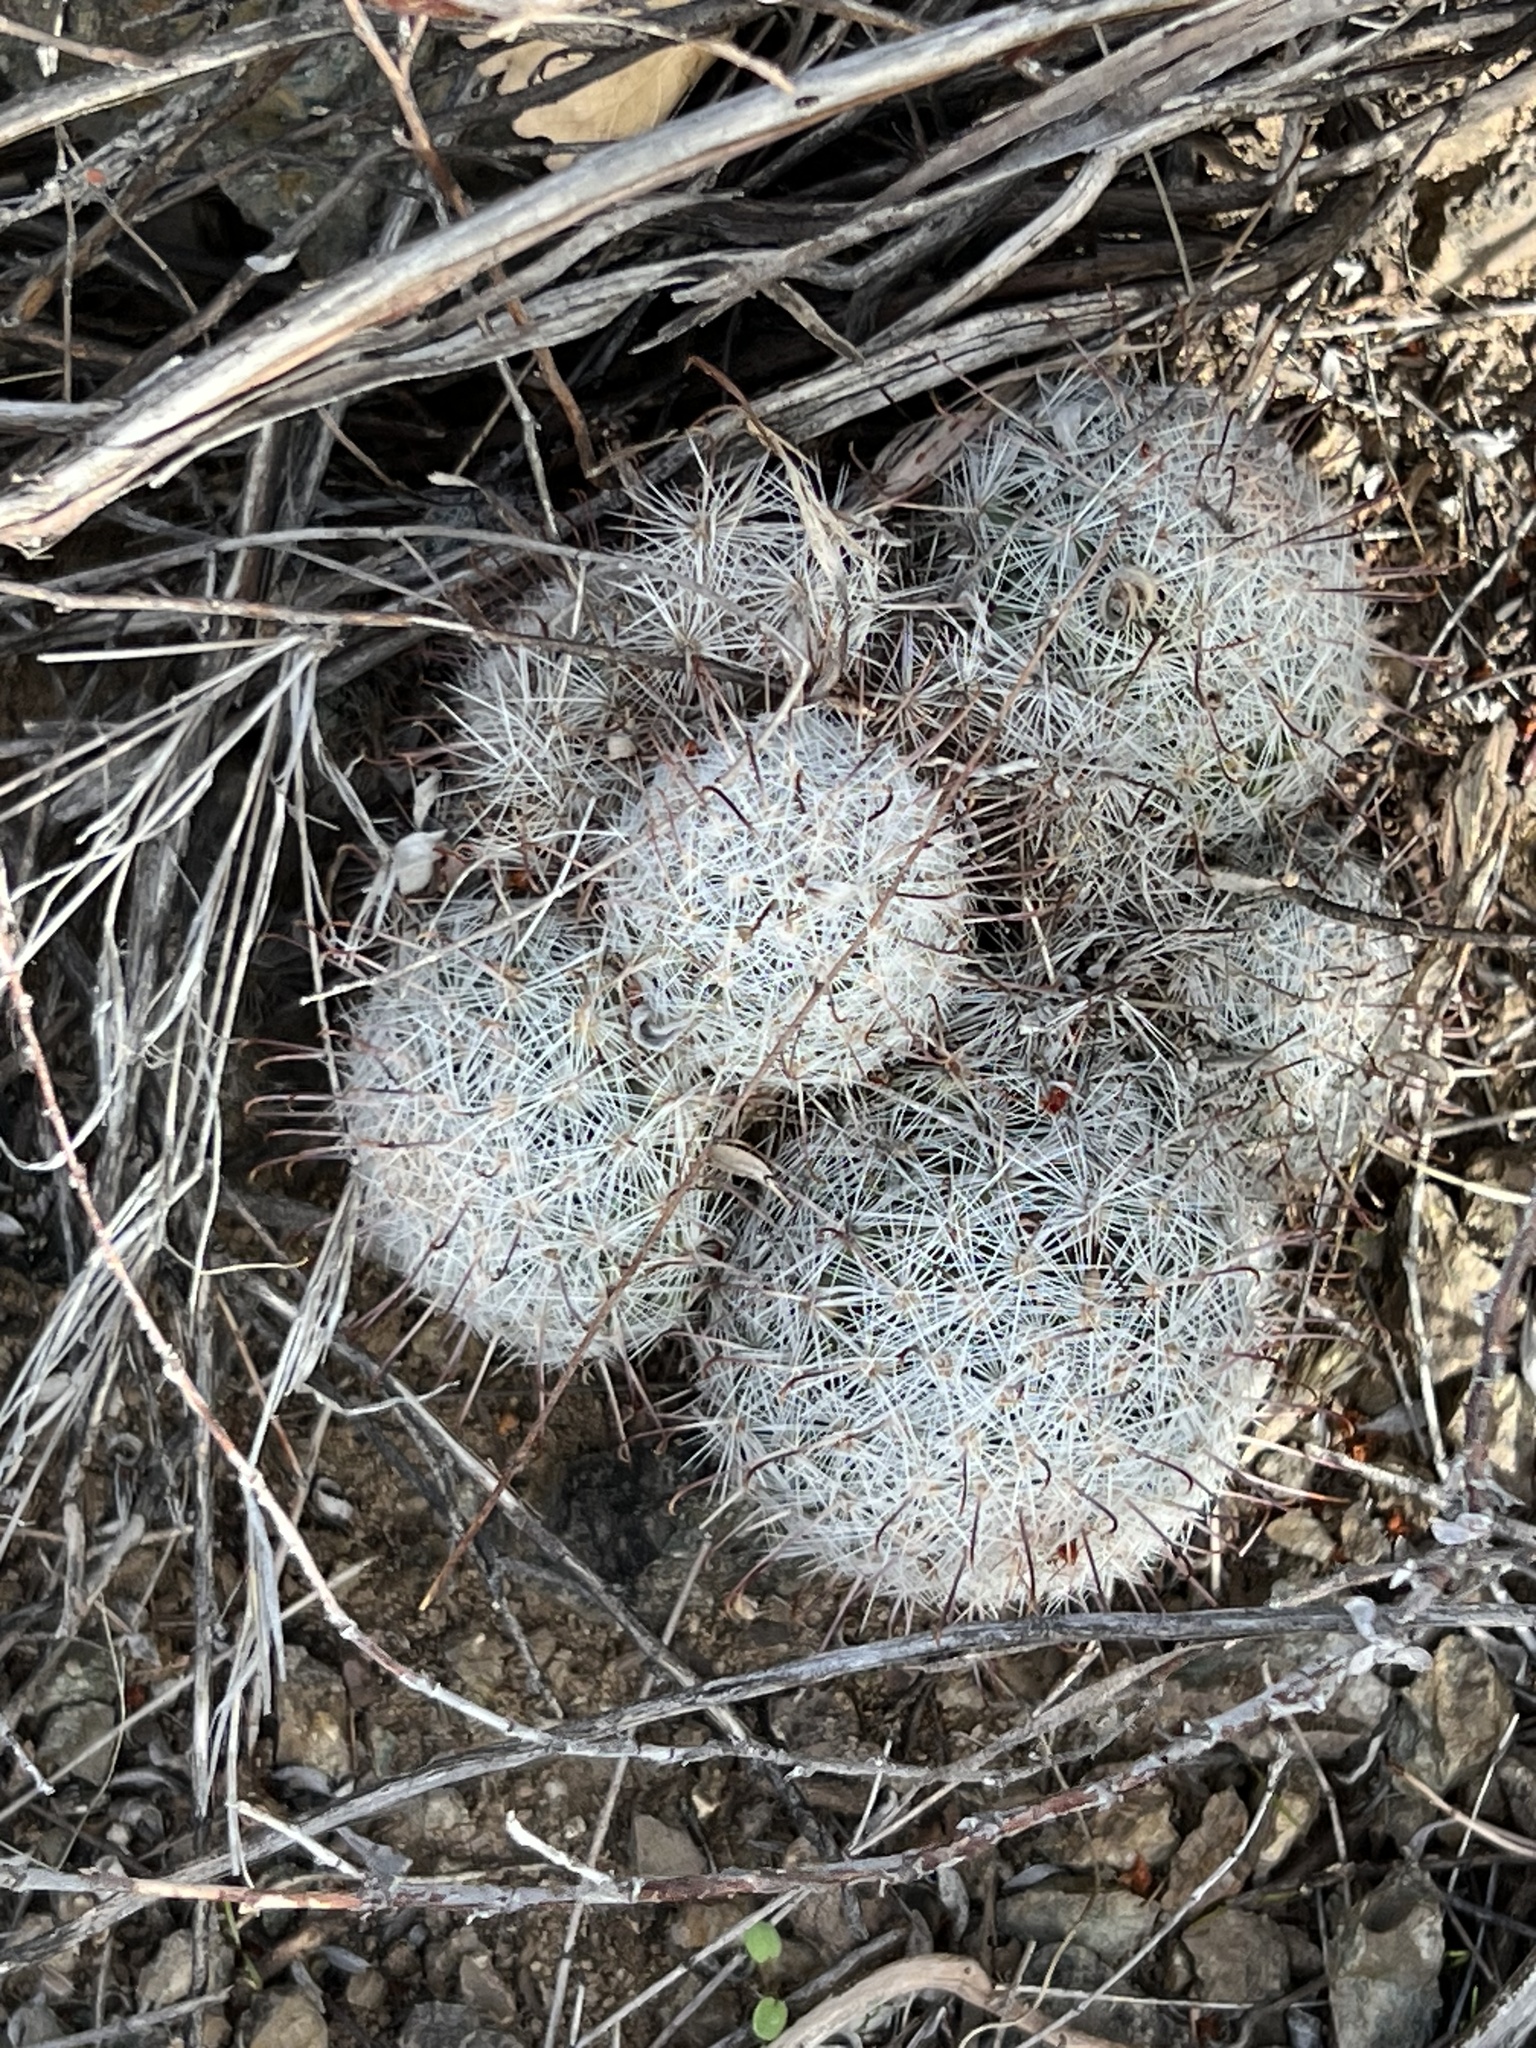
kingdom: Plantae
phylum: Tracheophyta
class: Magnoliopsida
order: Caryophyllales
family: Cactaceae
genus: Cochemiea
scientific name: Cochemiea grahamii
